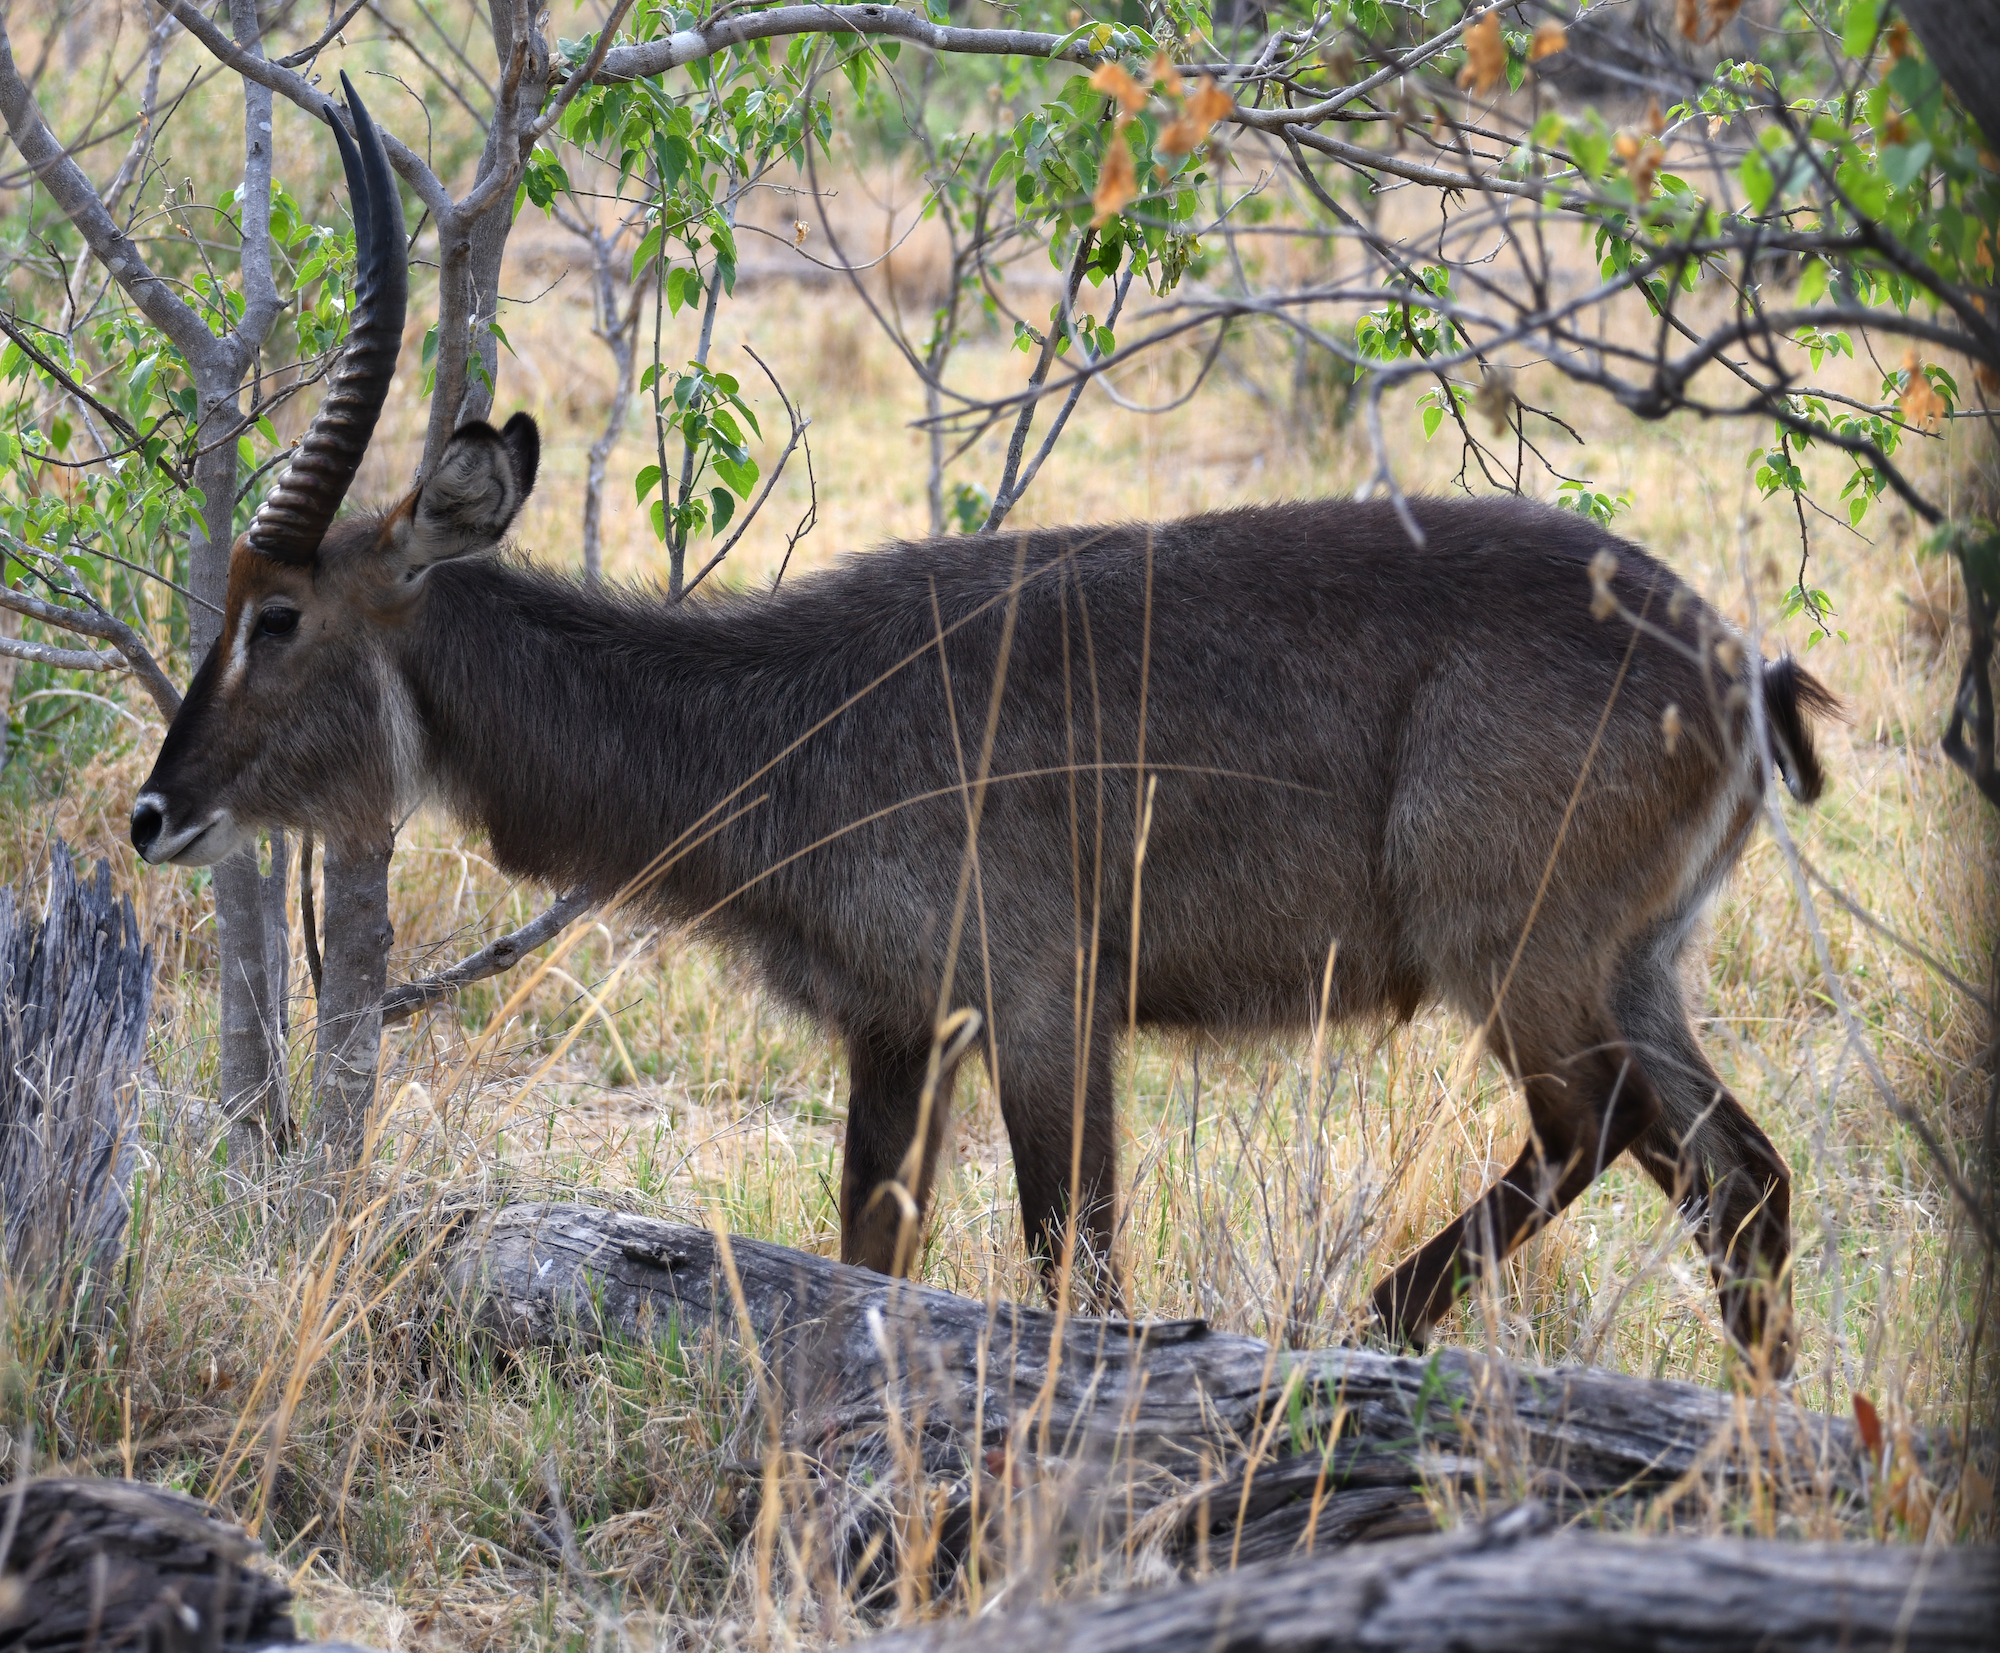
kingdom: Animalia
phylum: Chordata
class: Mammalia
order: Artiodactyla
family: Bovidae
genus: Kobus
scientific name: Kobus ellipsiprymnus
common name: Waterbuck
